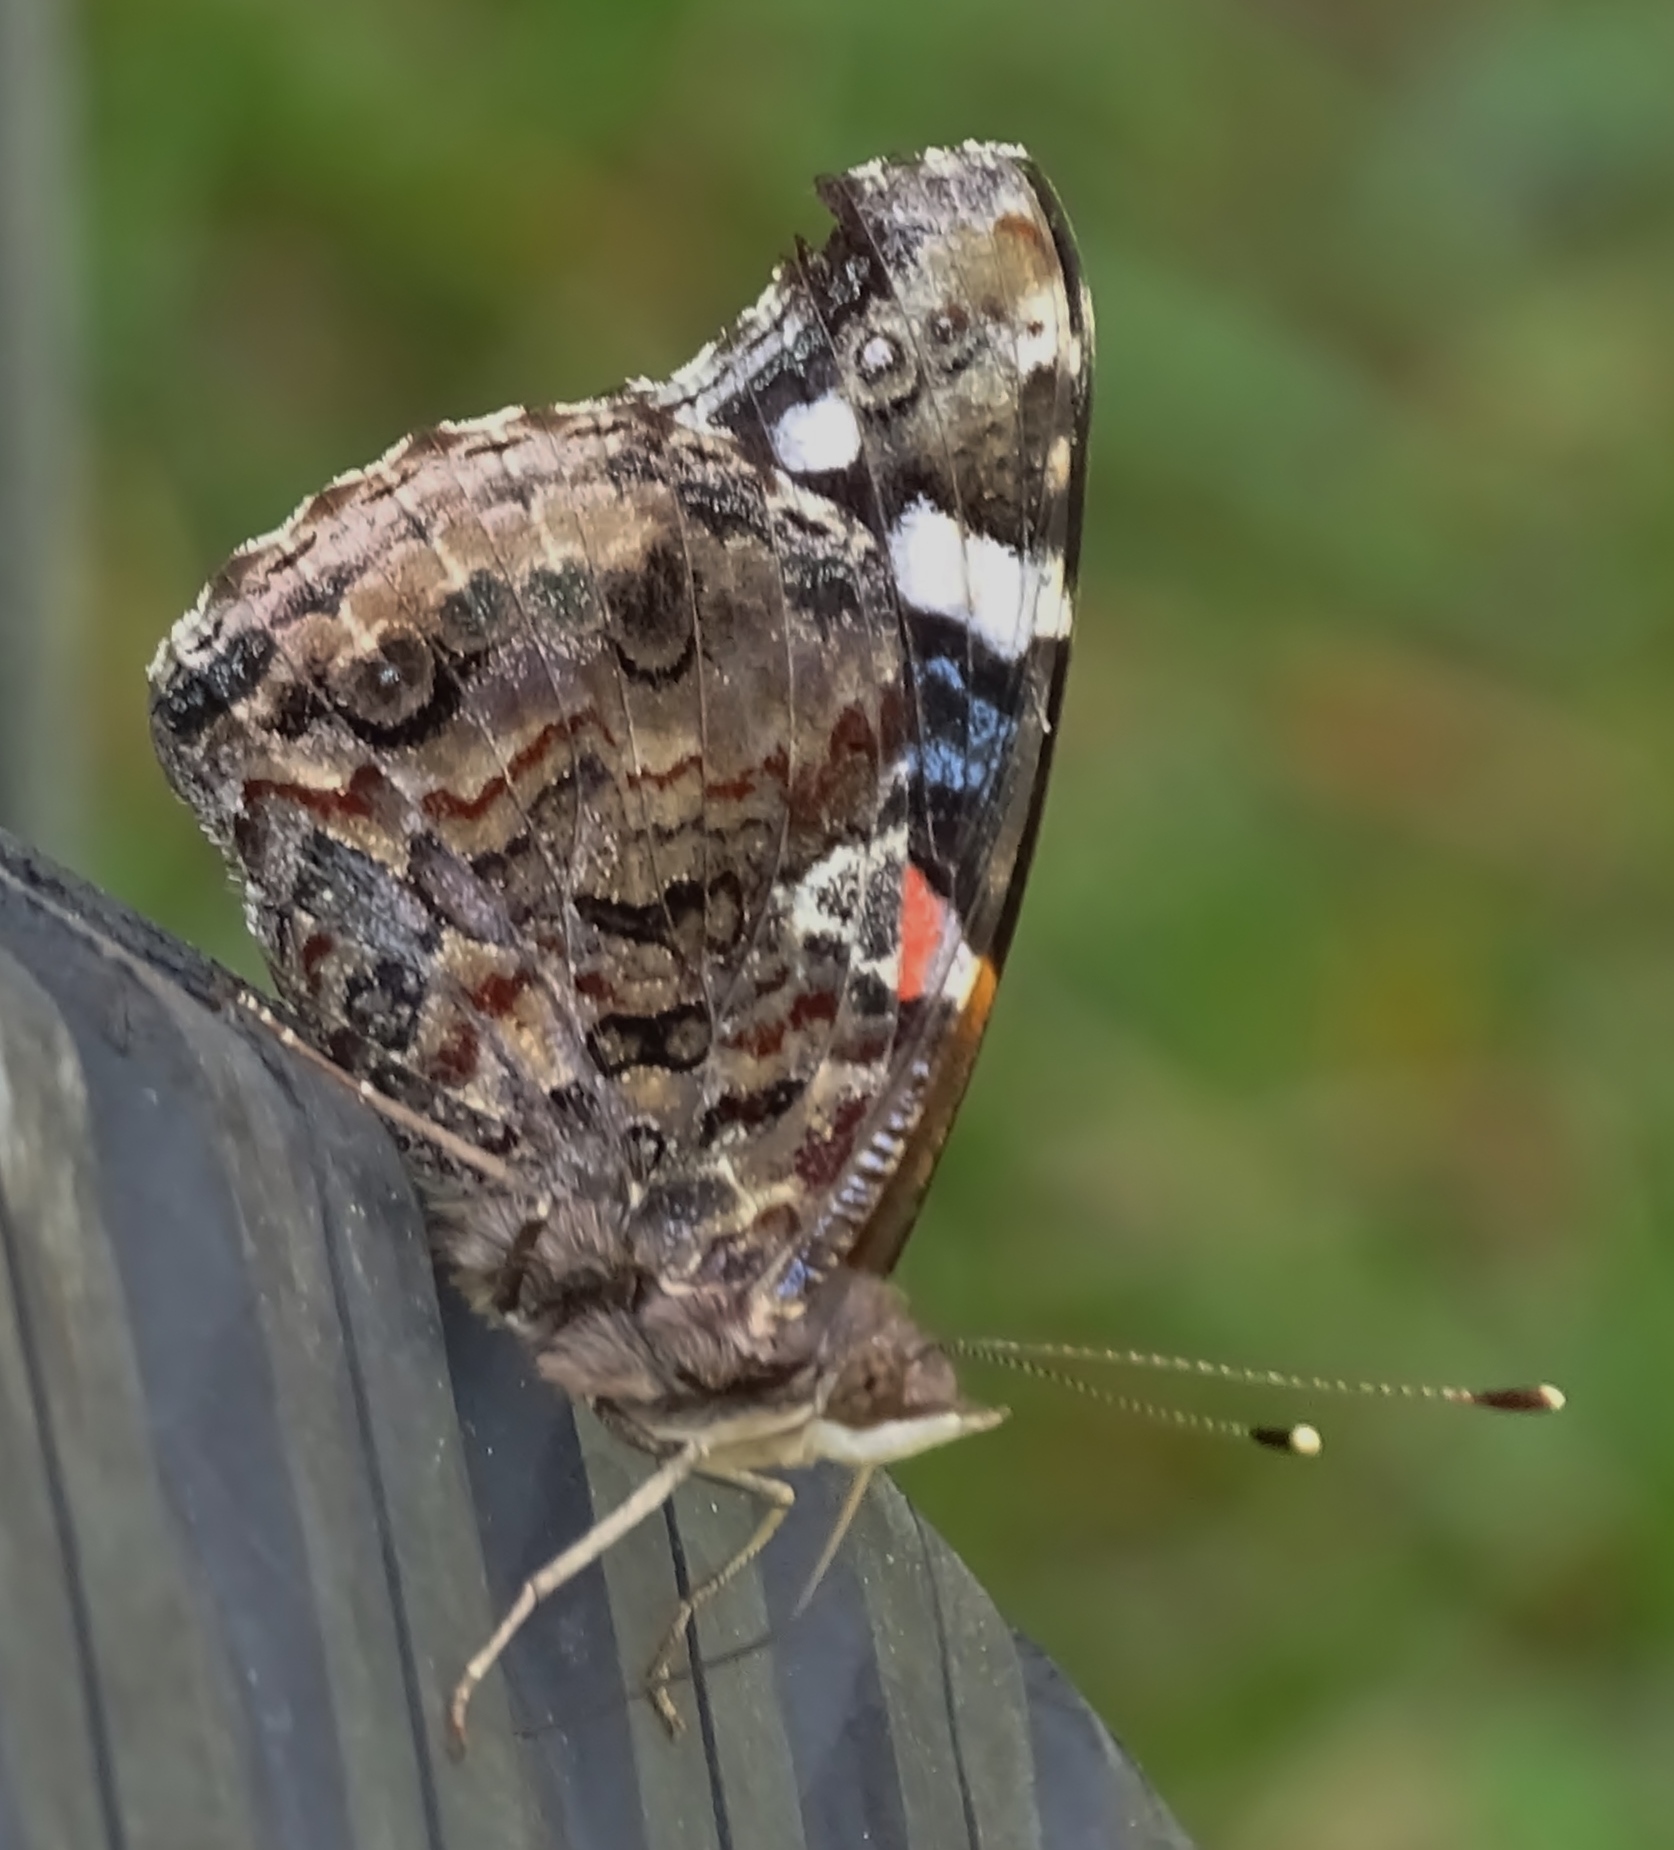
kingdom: Animalia
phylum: Arthropoda
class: Insecta
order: Lepidoptera
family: Nymphalidae
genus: Vanessa
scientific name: Vanessa atalanta
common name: Red admiral
